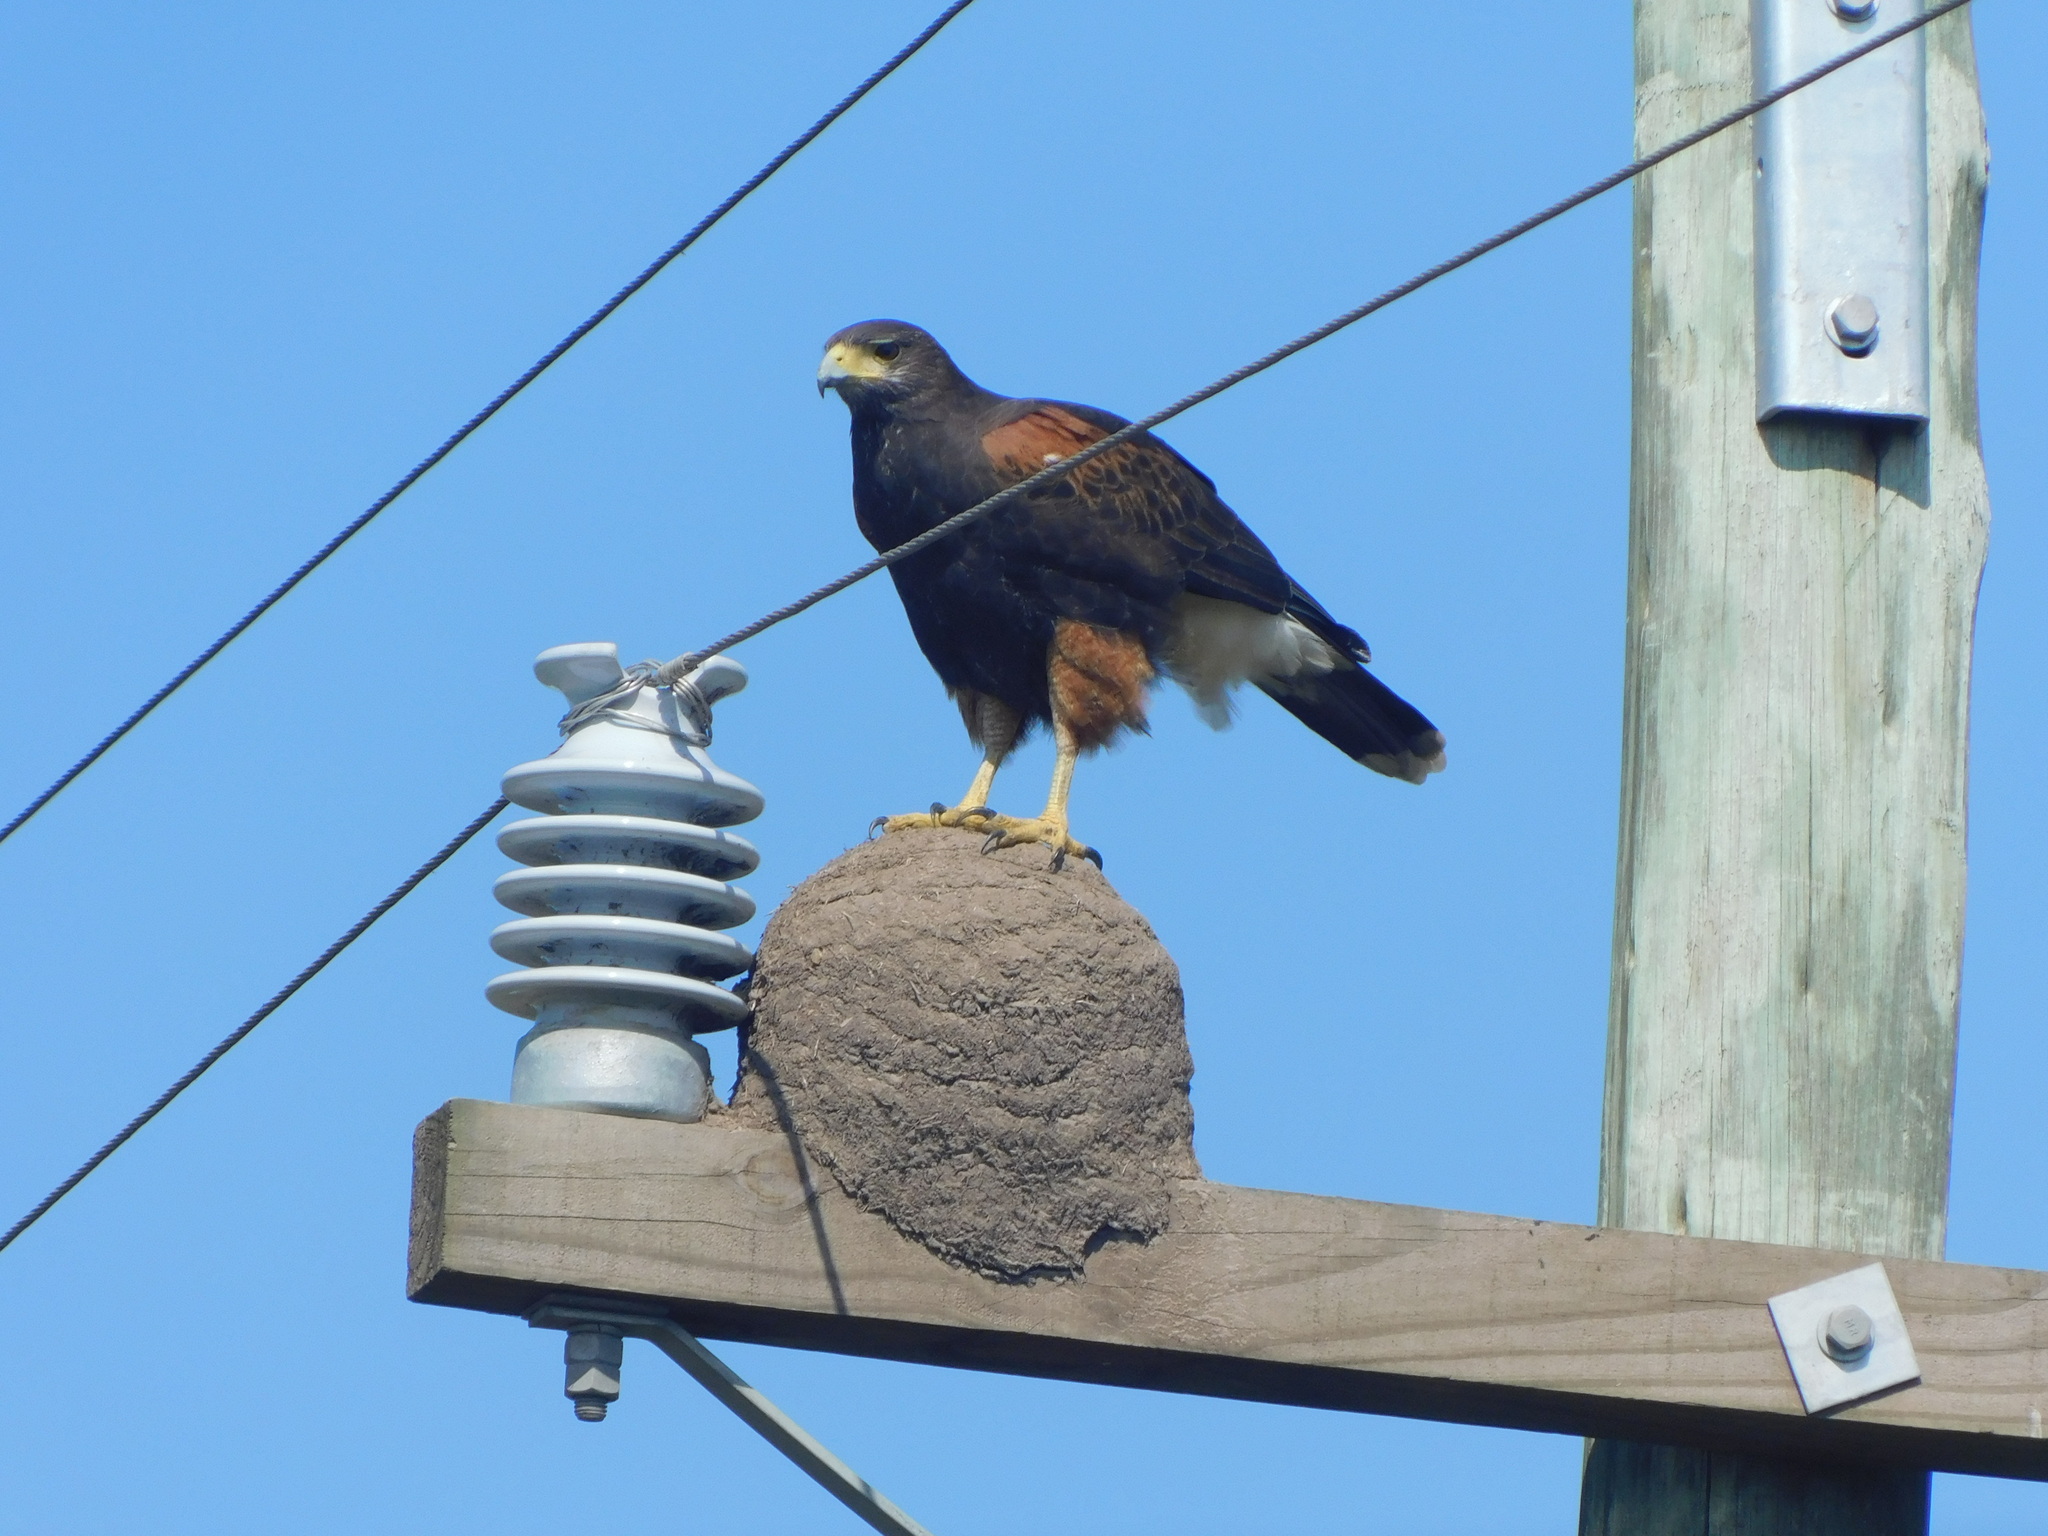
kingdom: Animalia
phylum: Chordata
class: Aves
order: Accipitriformes
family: Accipitridae
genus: Parabuteo
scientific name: Parabuteo unicinctus
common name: Harris's hawk
